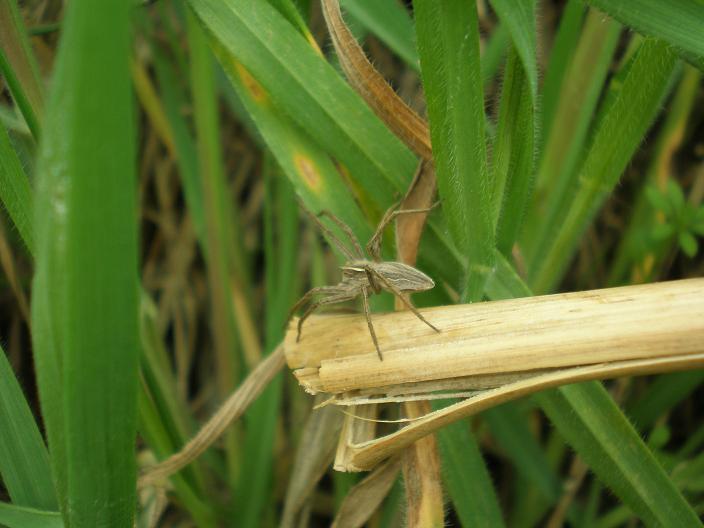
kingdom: Animalia
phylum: Arthropoda
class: Arachnida
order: Araneae
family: Pisauridae
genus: Pisaura
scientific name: Pisaura mirabilis
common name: Tent spider
